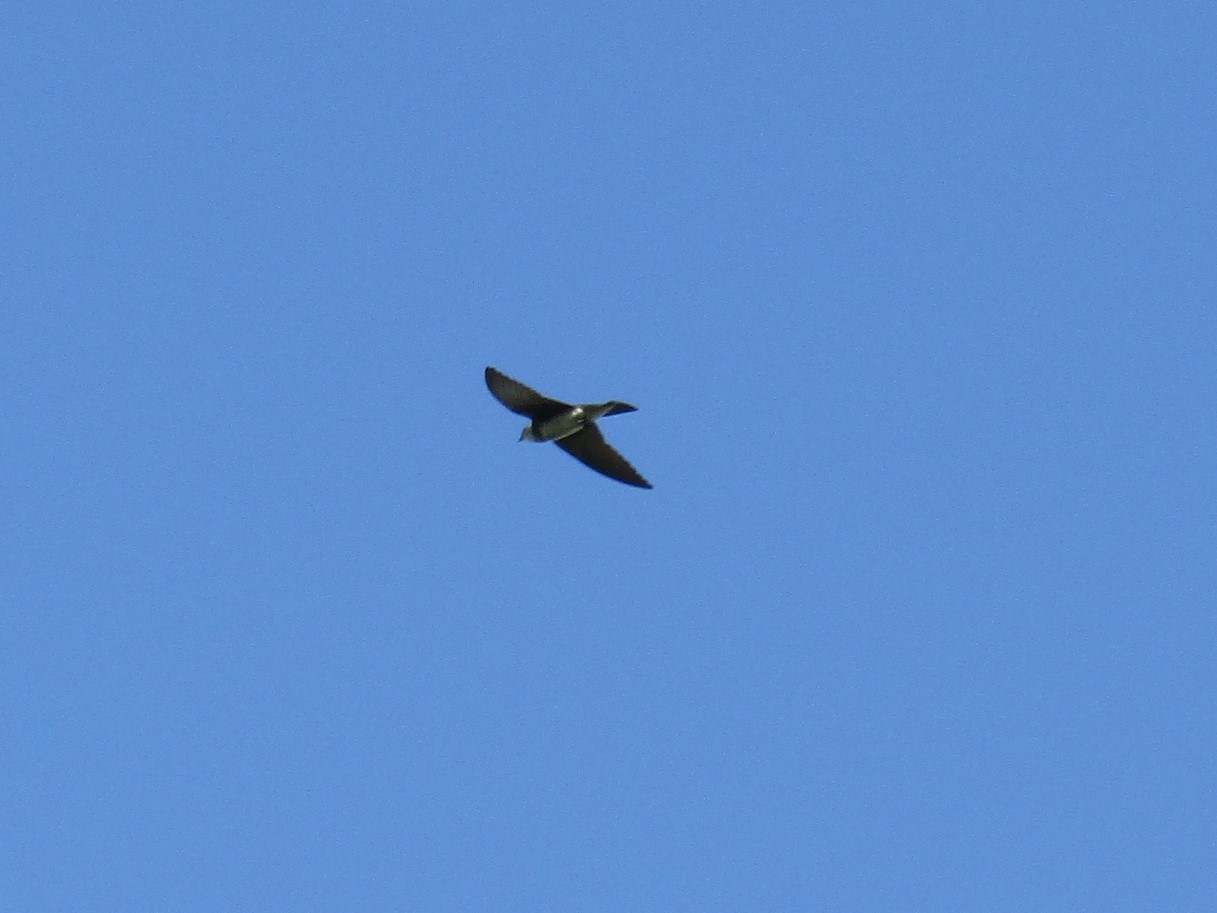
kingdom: Animalia
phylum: Chordata
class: Aves
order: Passeriformes
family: Hirundinidae
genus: Progne
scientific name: Progne tapera
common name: Brown-chested martin
